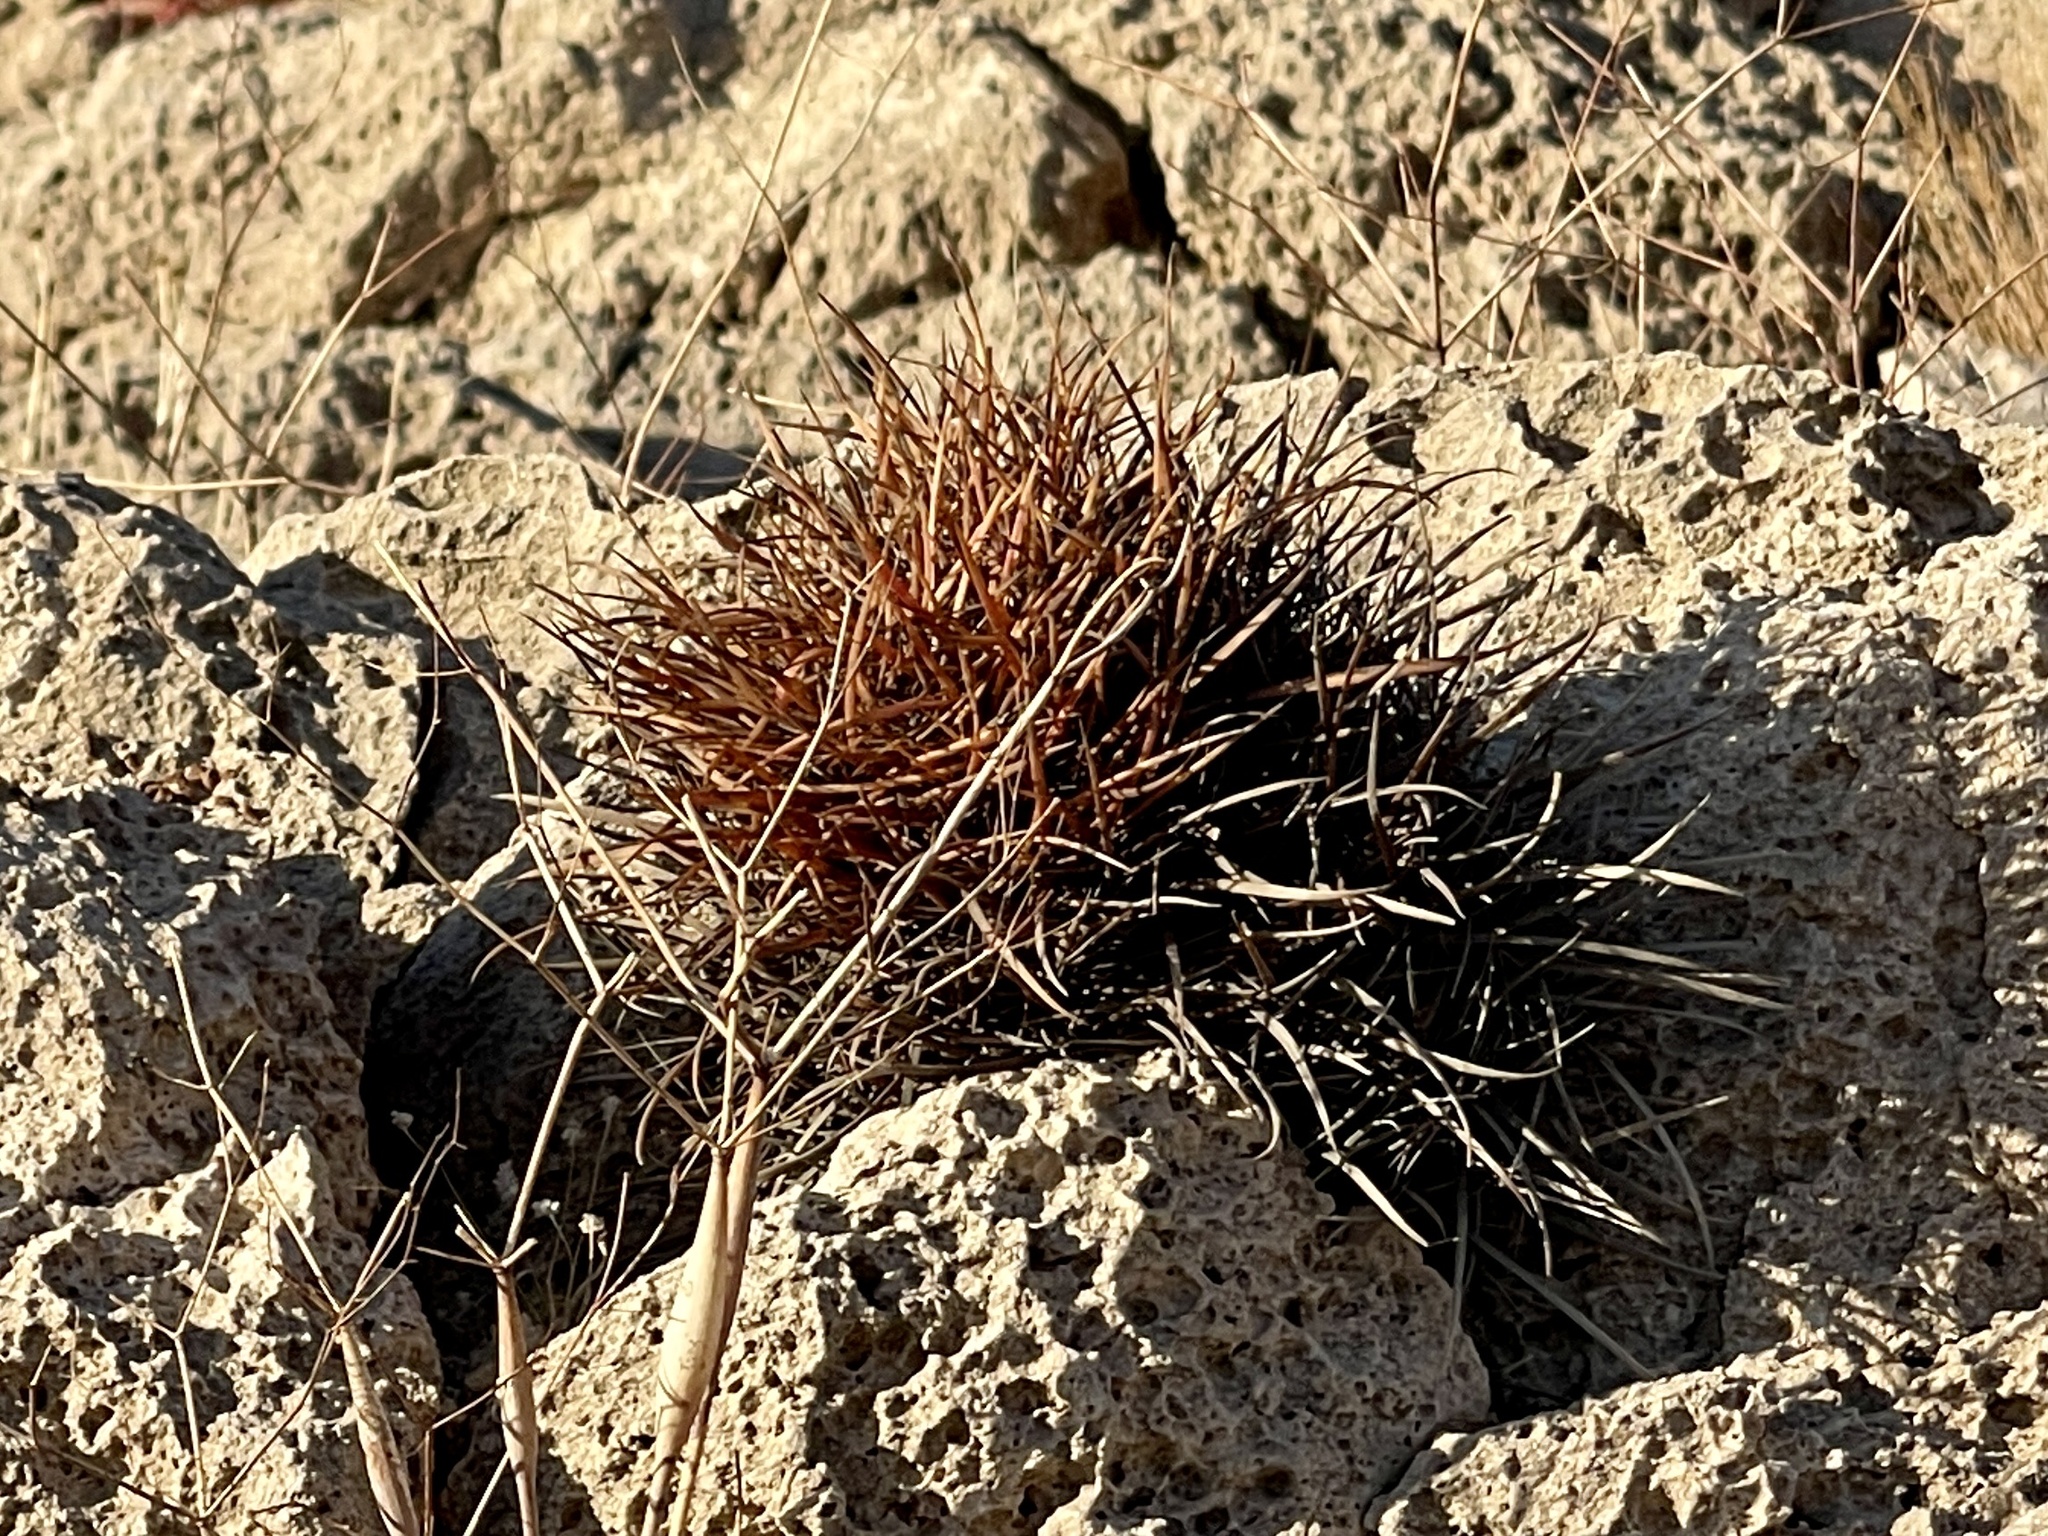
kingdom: Plantae
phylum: Tracheophyta
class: Magnoliopsida
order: Caryophyllales
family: Cactaceae
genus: Ferocactus
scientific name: Ferocactus cylindraceus
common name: California barrel cactus
